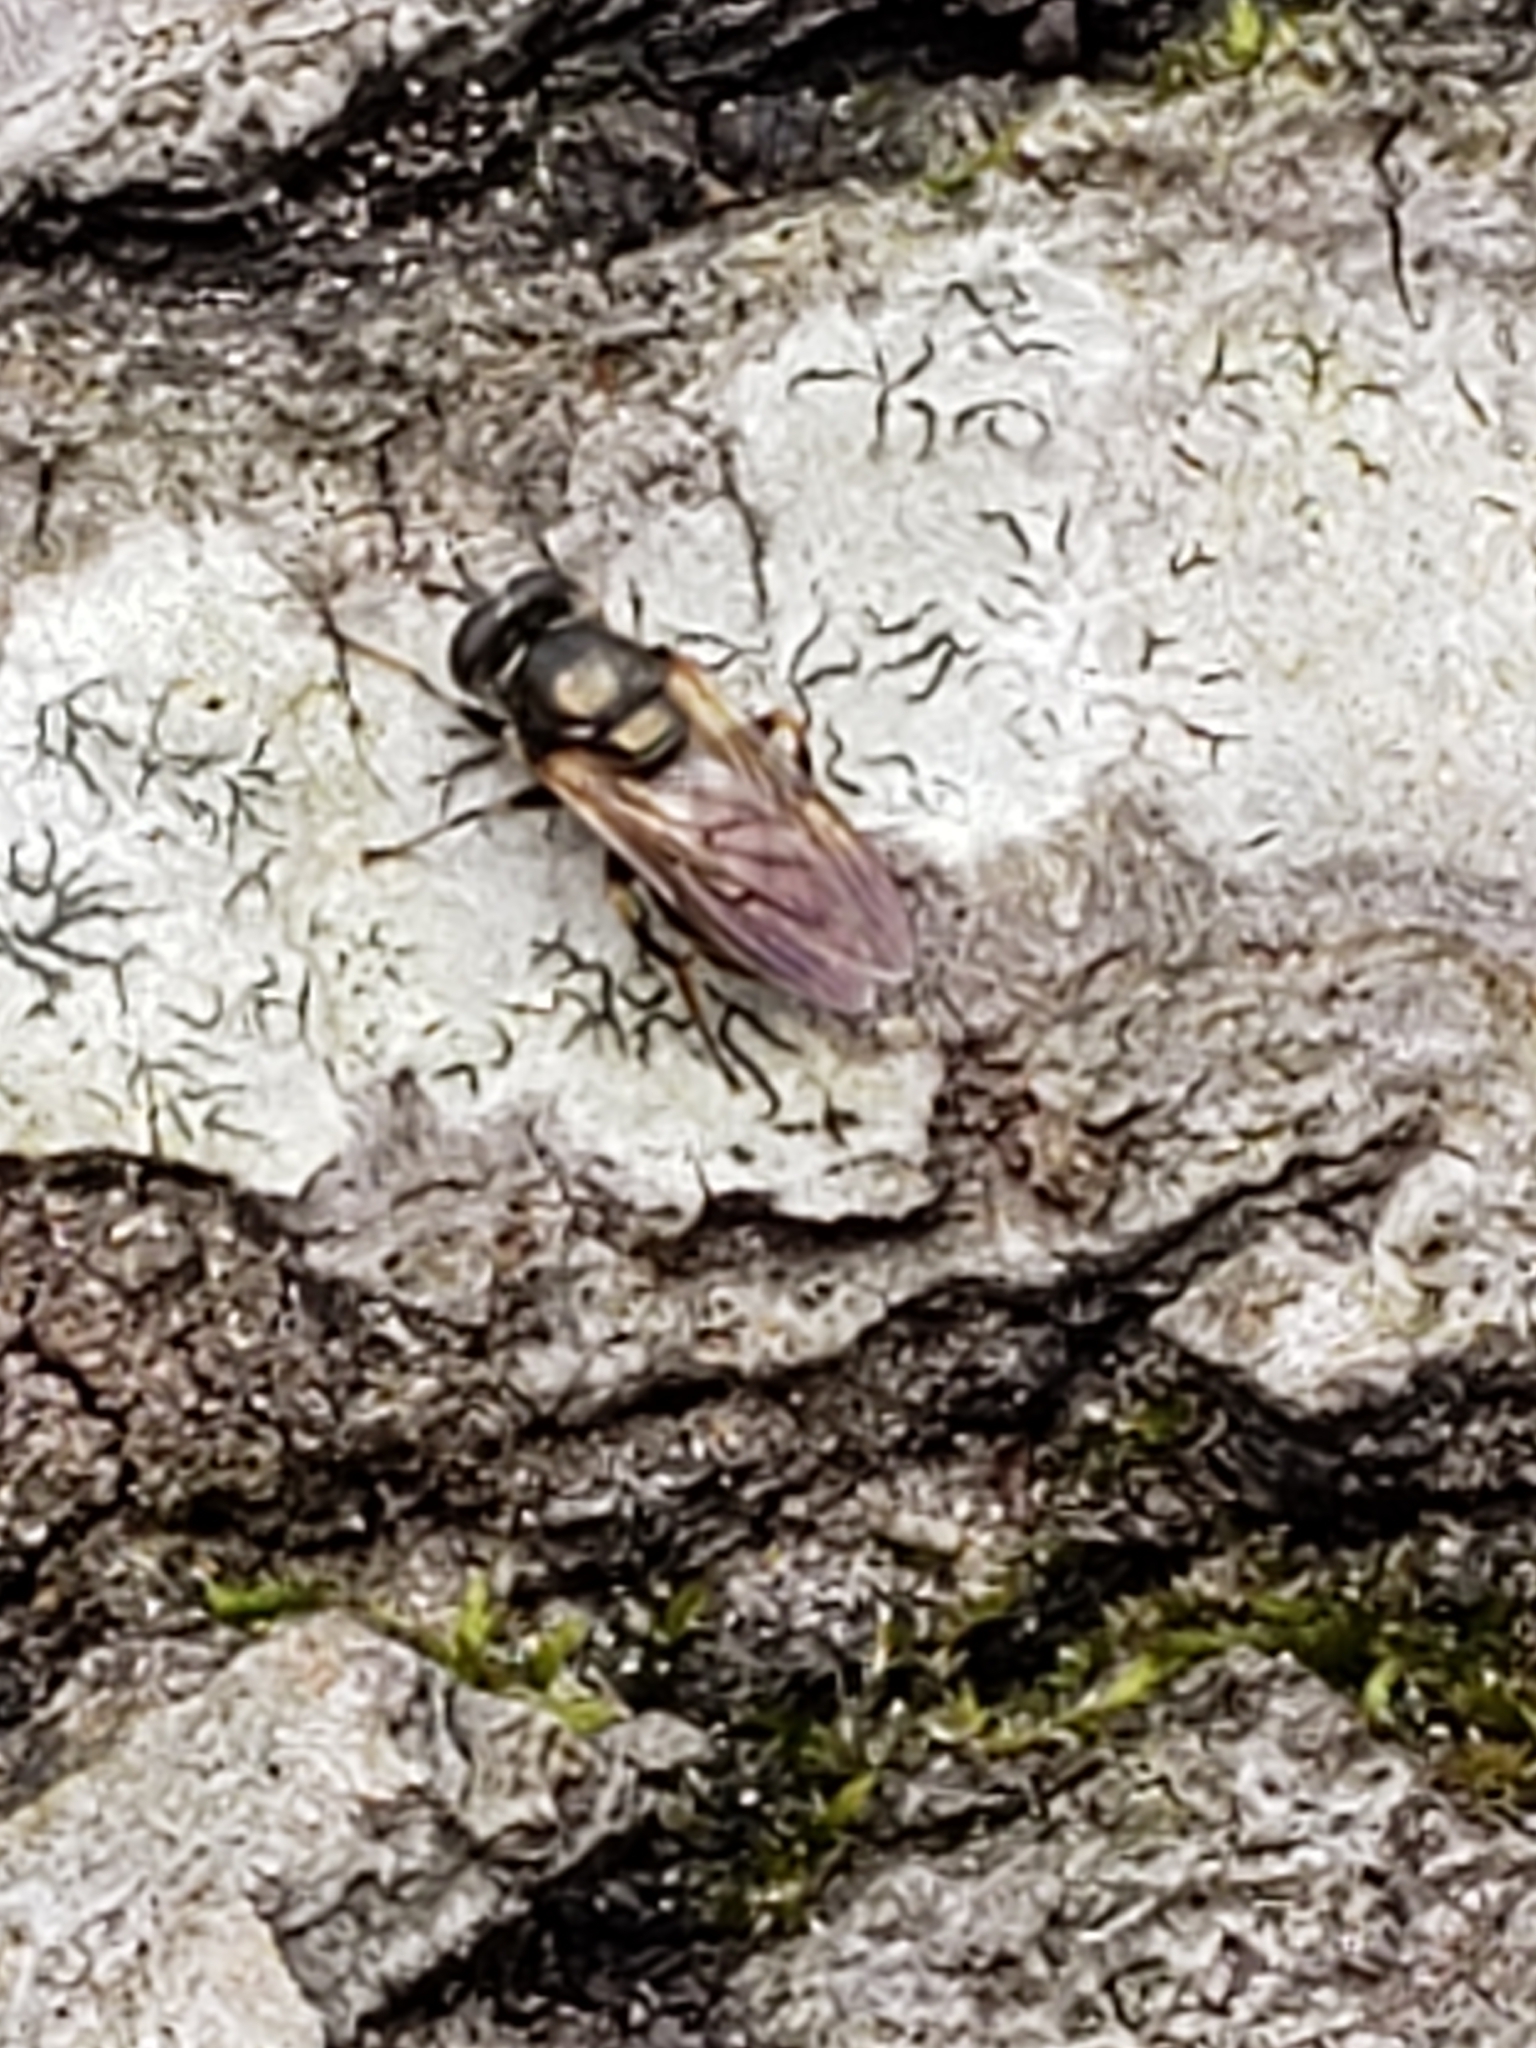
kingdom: Animalia
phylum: Arthropoda
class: Insecta
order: Diptera
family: Syrphidae
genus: Lejota
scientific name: Lejota aerea
